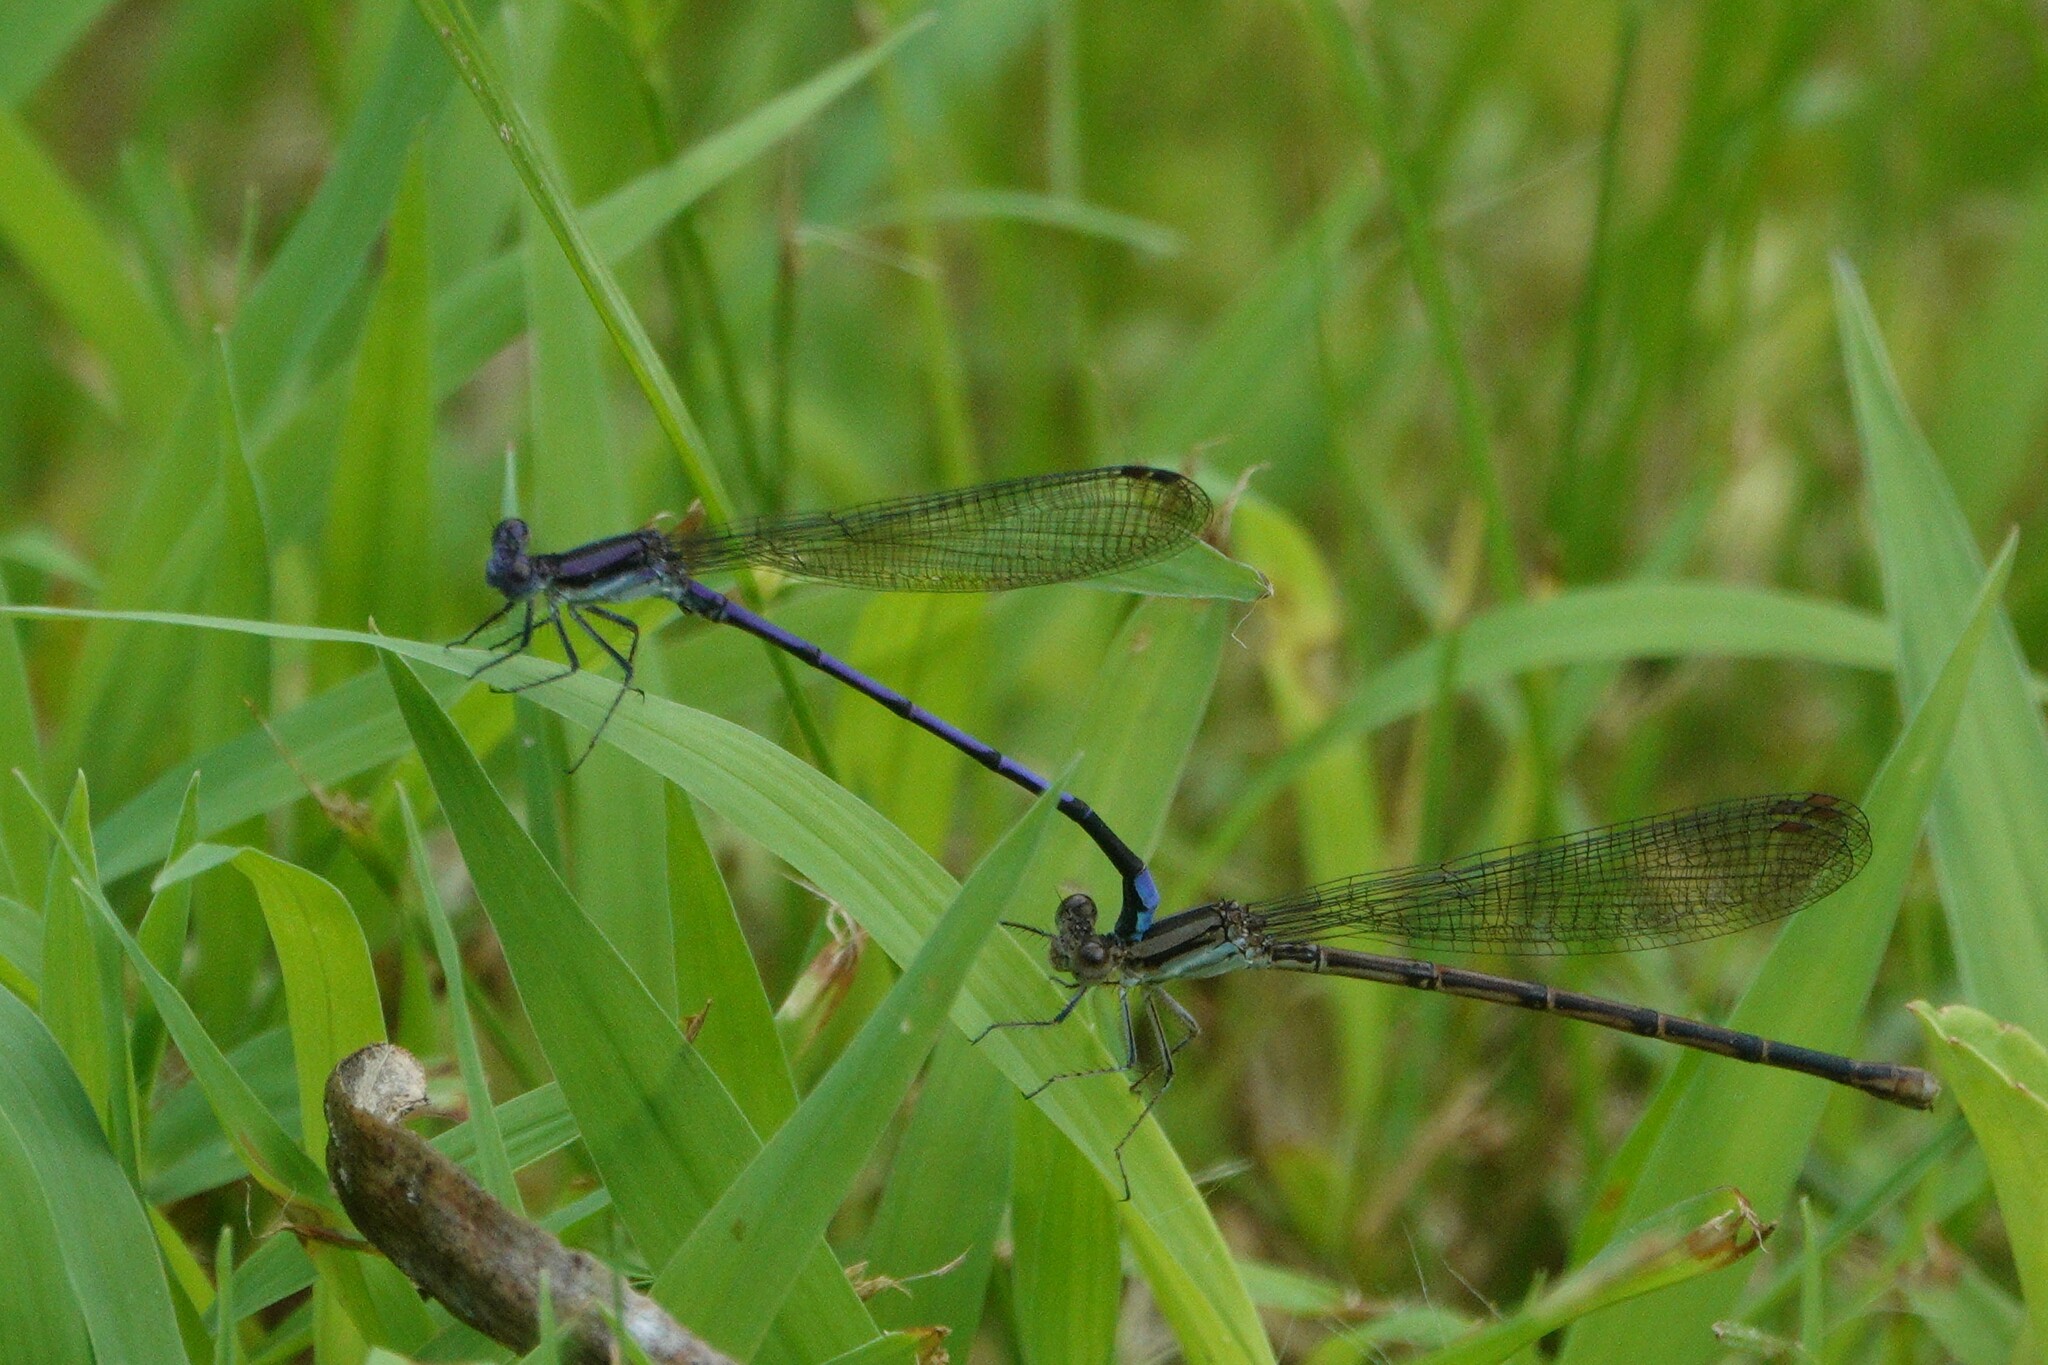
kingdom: Animalia
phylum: Arthropoda
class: Insecta
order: Odonata
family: Coenagrionidae
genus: Argia
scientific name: Argia fumipennis
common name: Variable dancer
